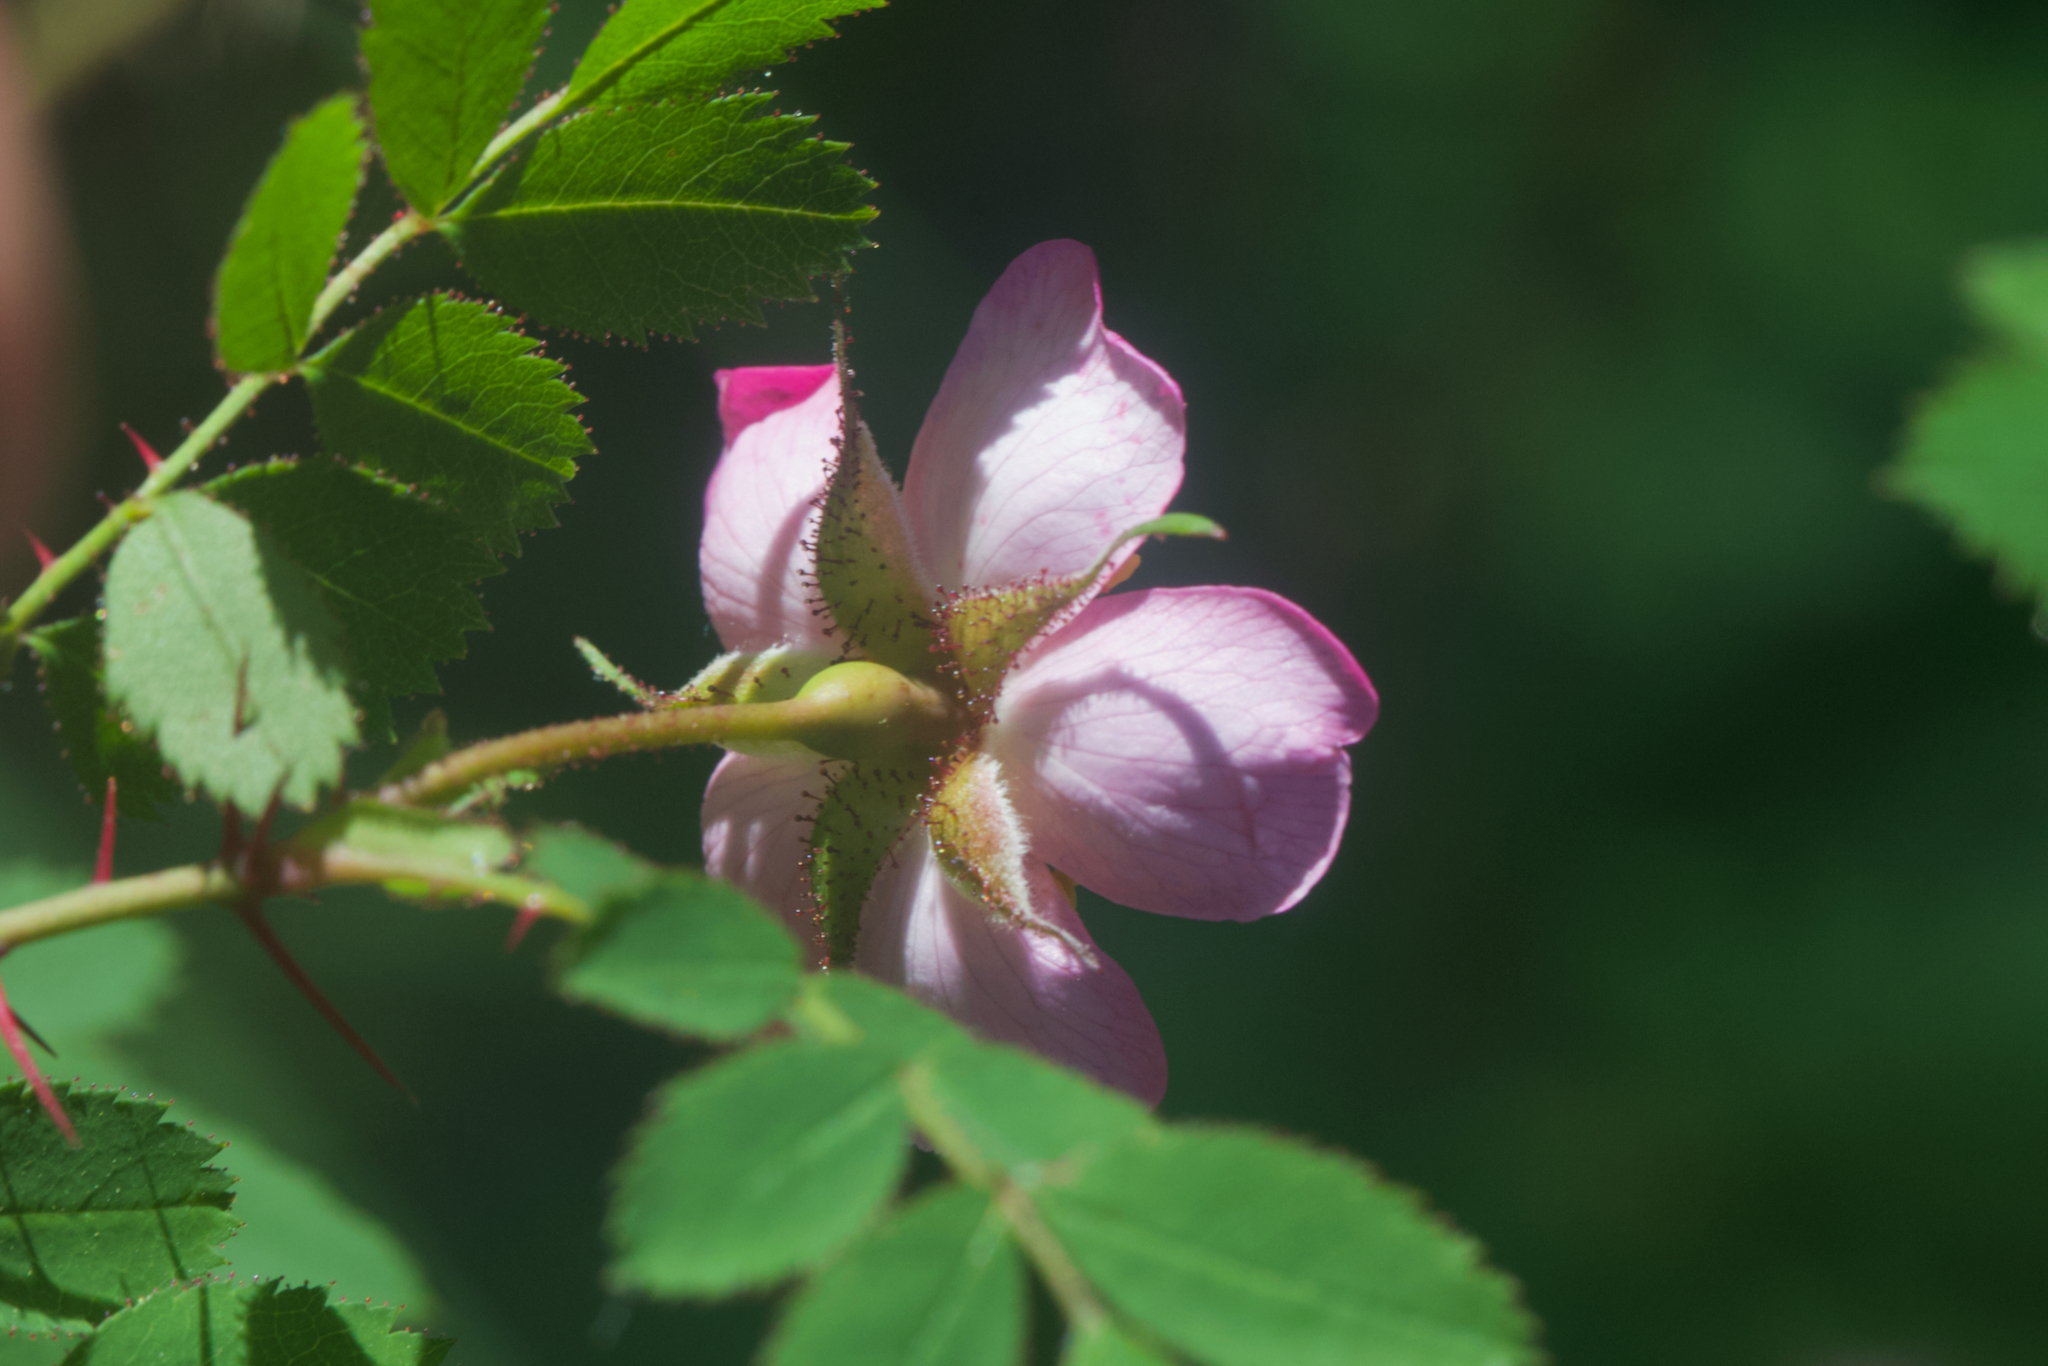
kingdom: Plantae
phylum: Tracheophyta
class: Magnoliopsida
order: Rosales
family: Rosaceae
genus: Rosa
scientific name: Rosa gymnocarpa
